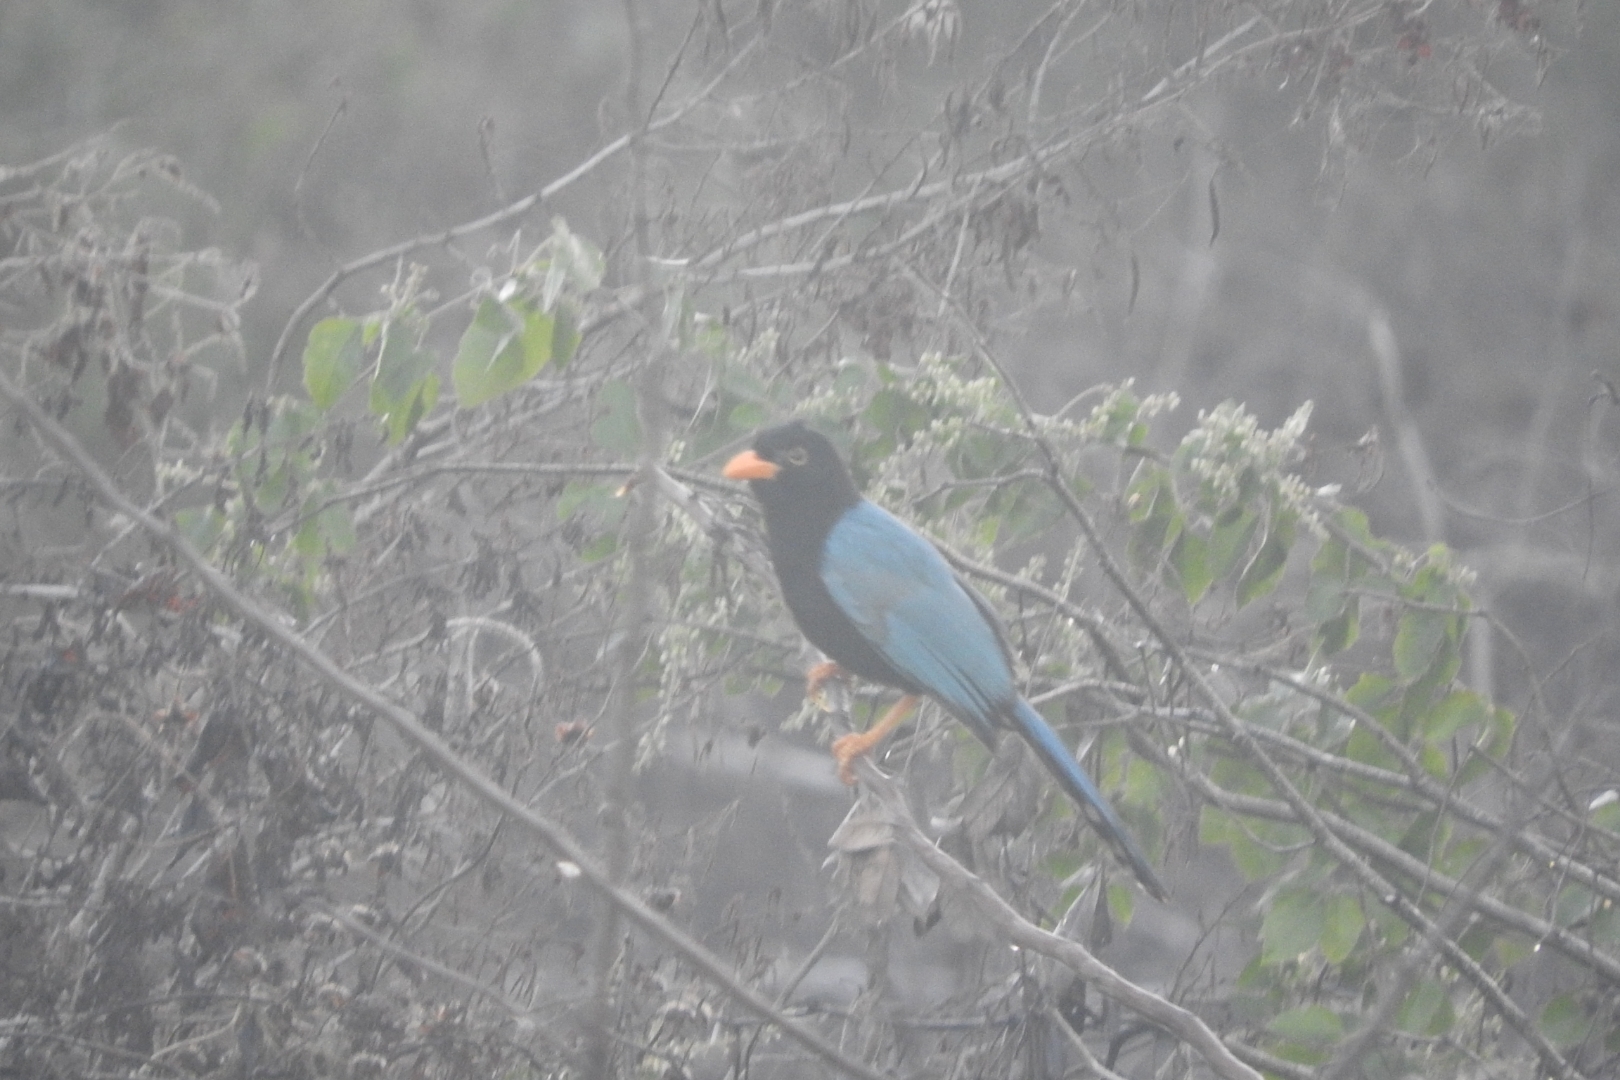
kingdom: Animalia
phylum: Chordata
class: Aves
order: Passeriformes
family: Corvidae
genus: Cyanocorax
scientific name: Cyanocorax yucatanicus
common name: Yucatan jay
